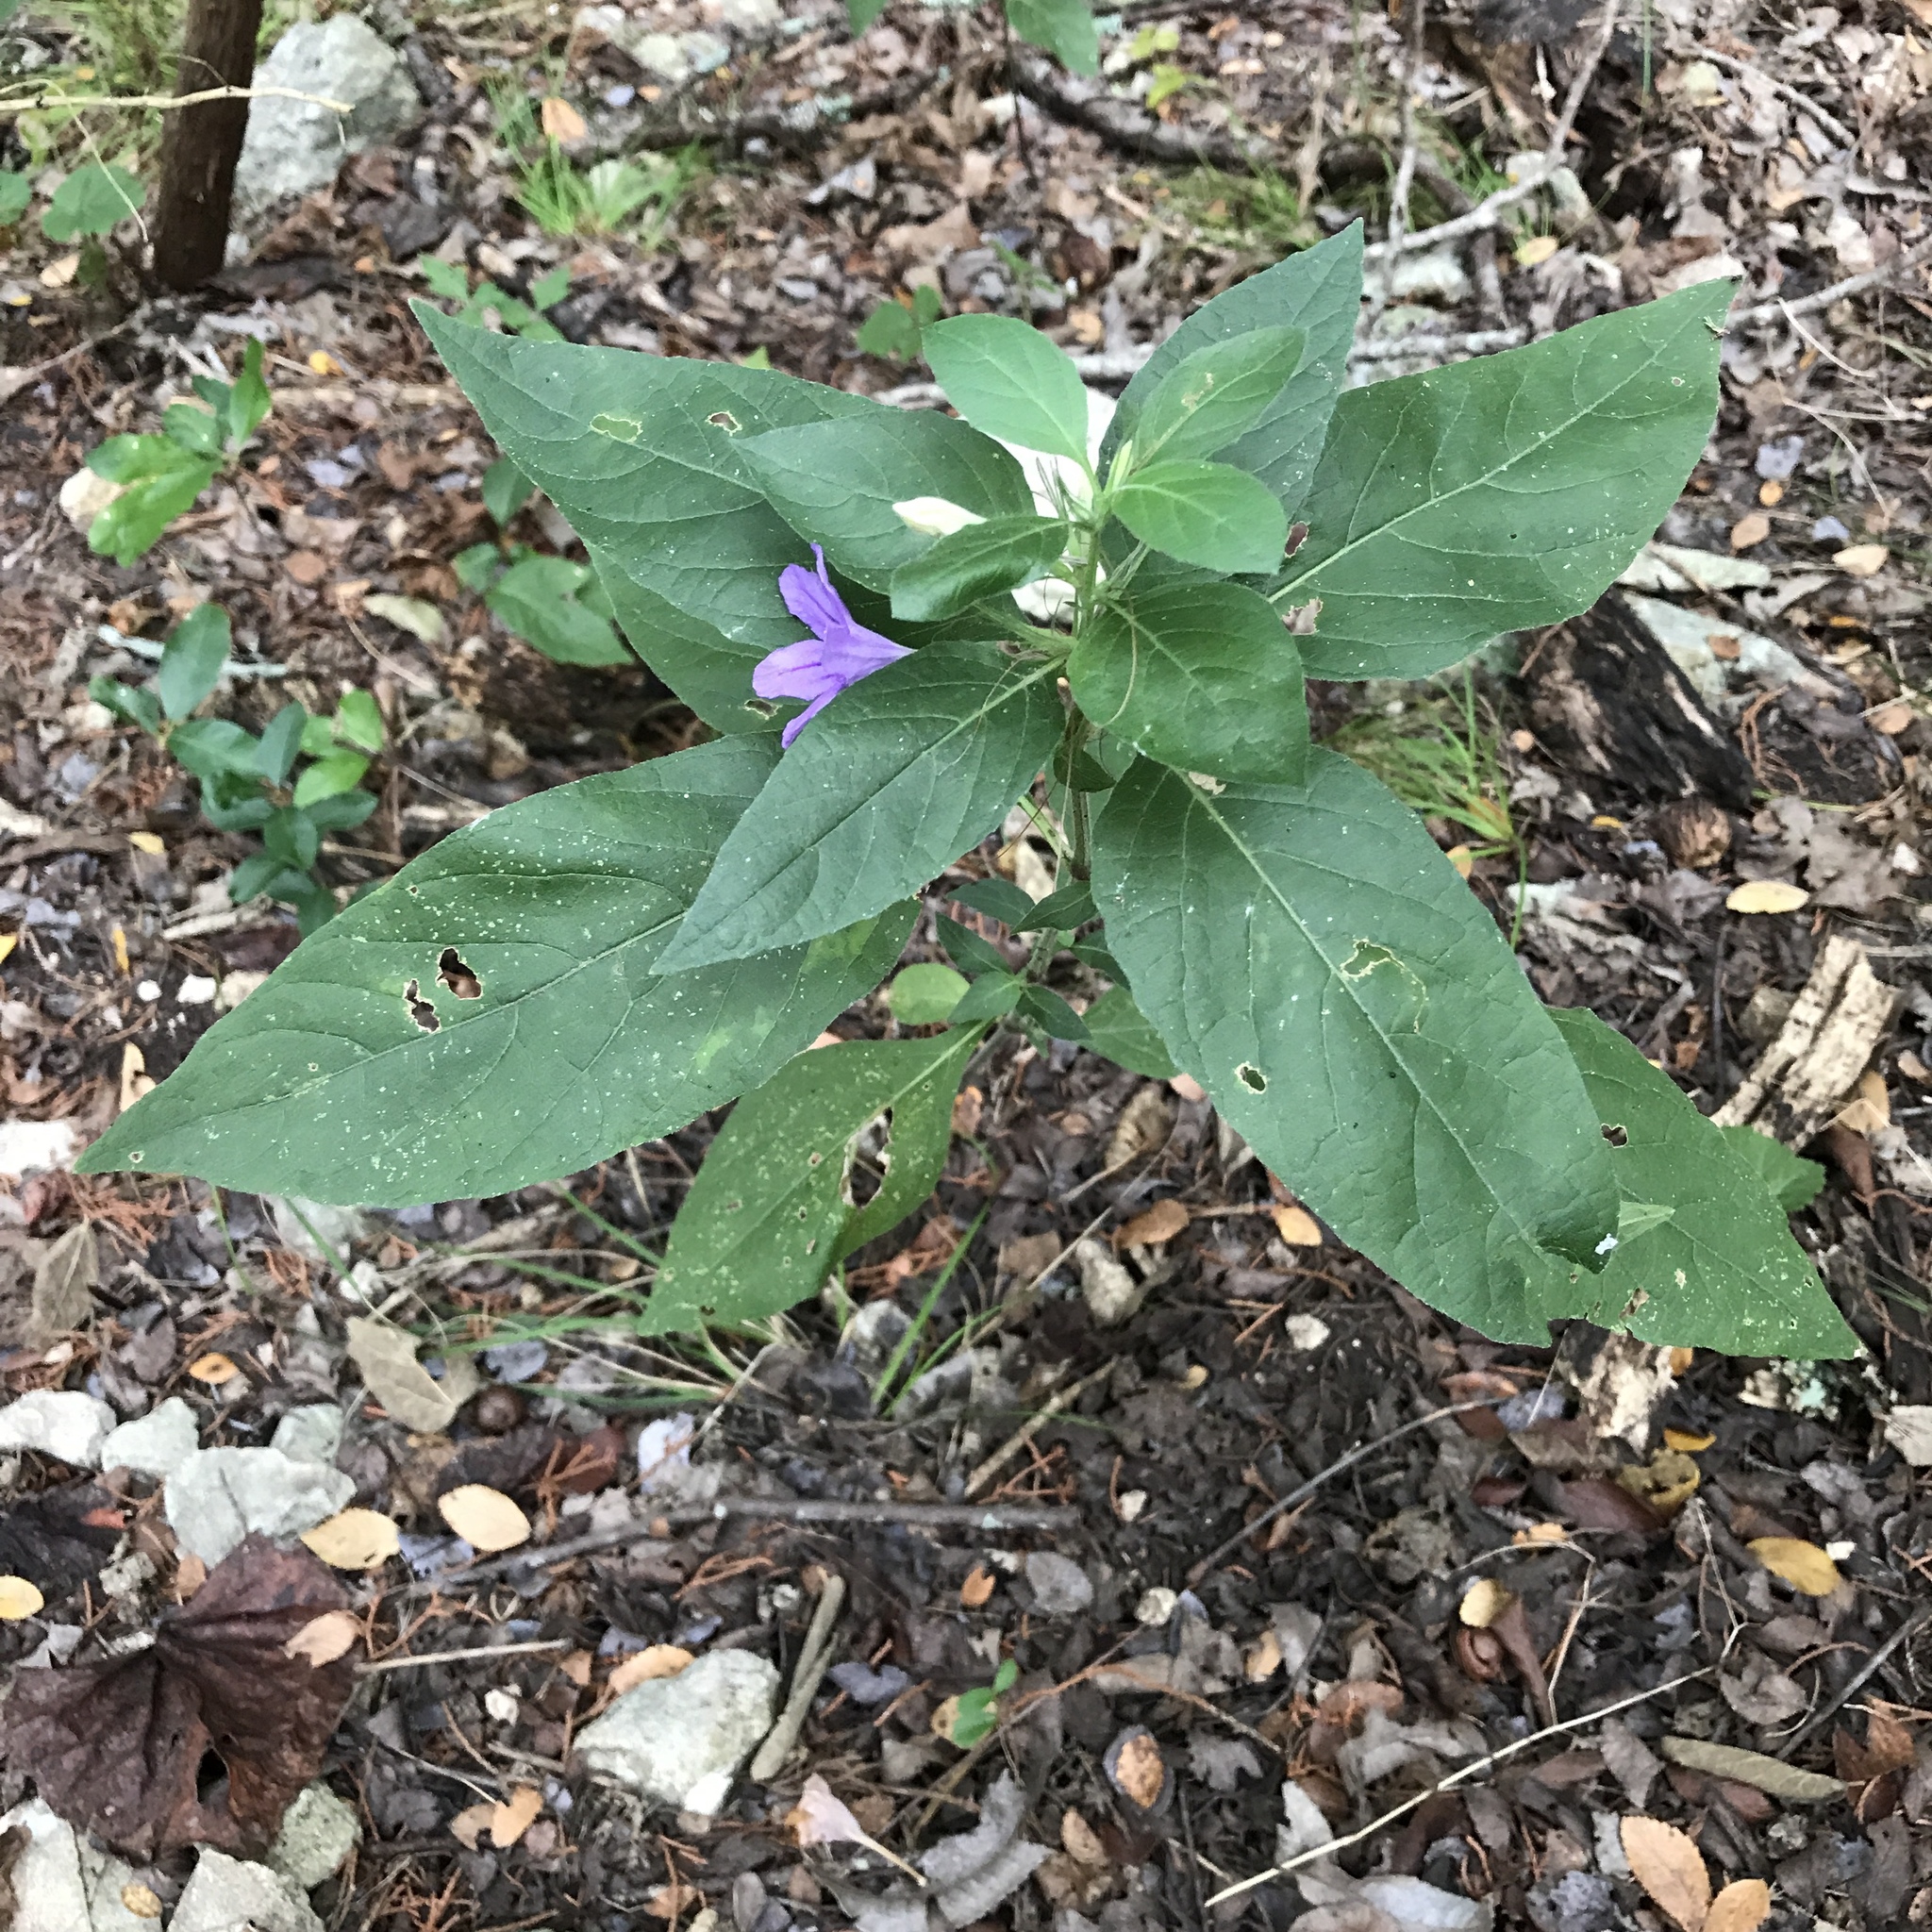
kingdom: Plantae
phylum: Tracheophyta
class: Magnoliopsida
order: Lamiales
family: Acanthaceae
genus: Ruellia
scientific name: Ruellia drummondiana
